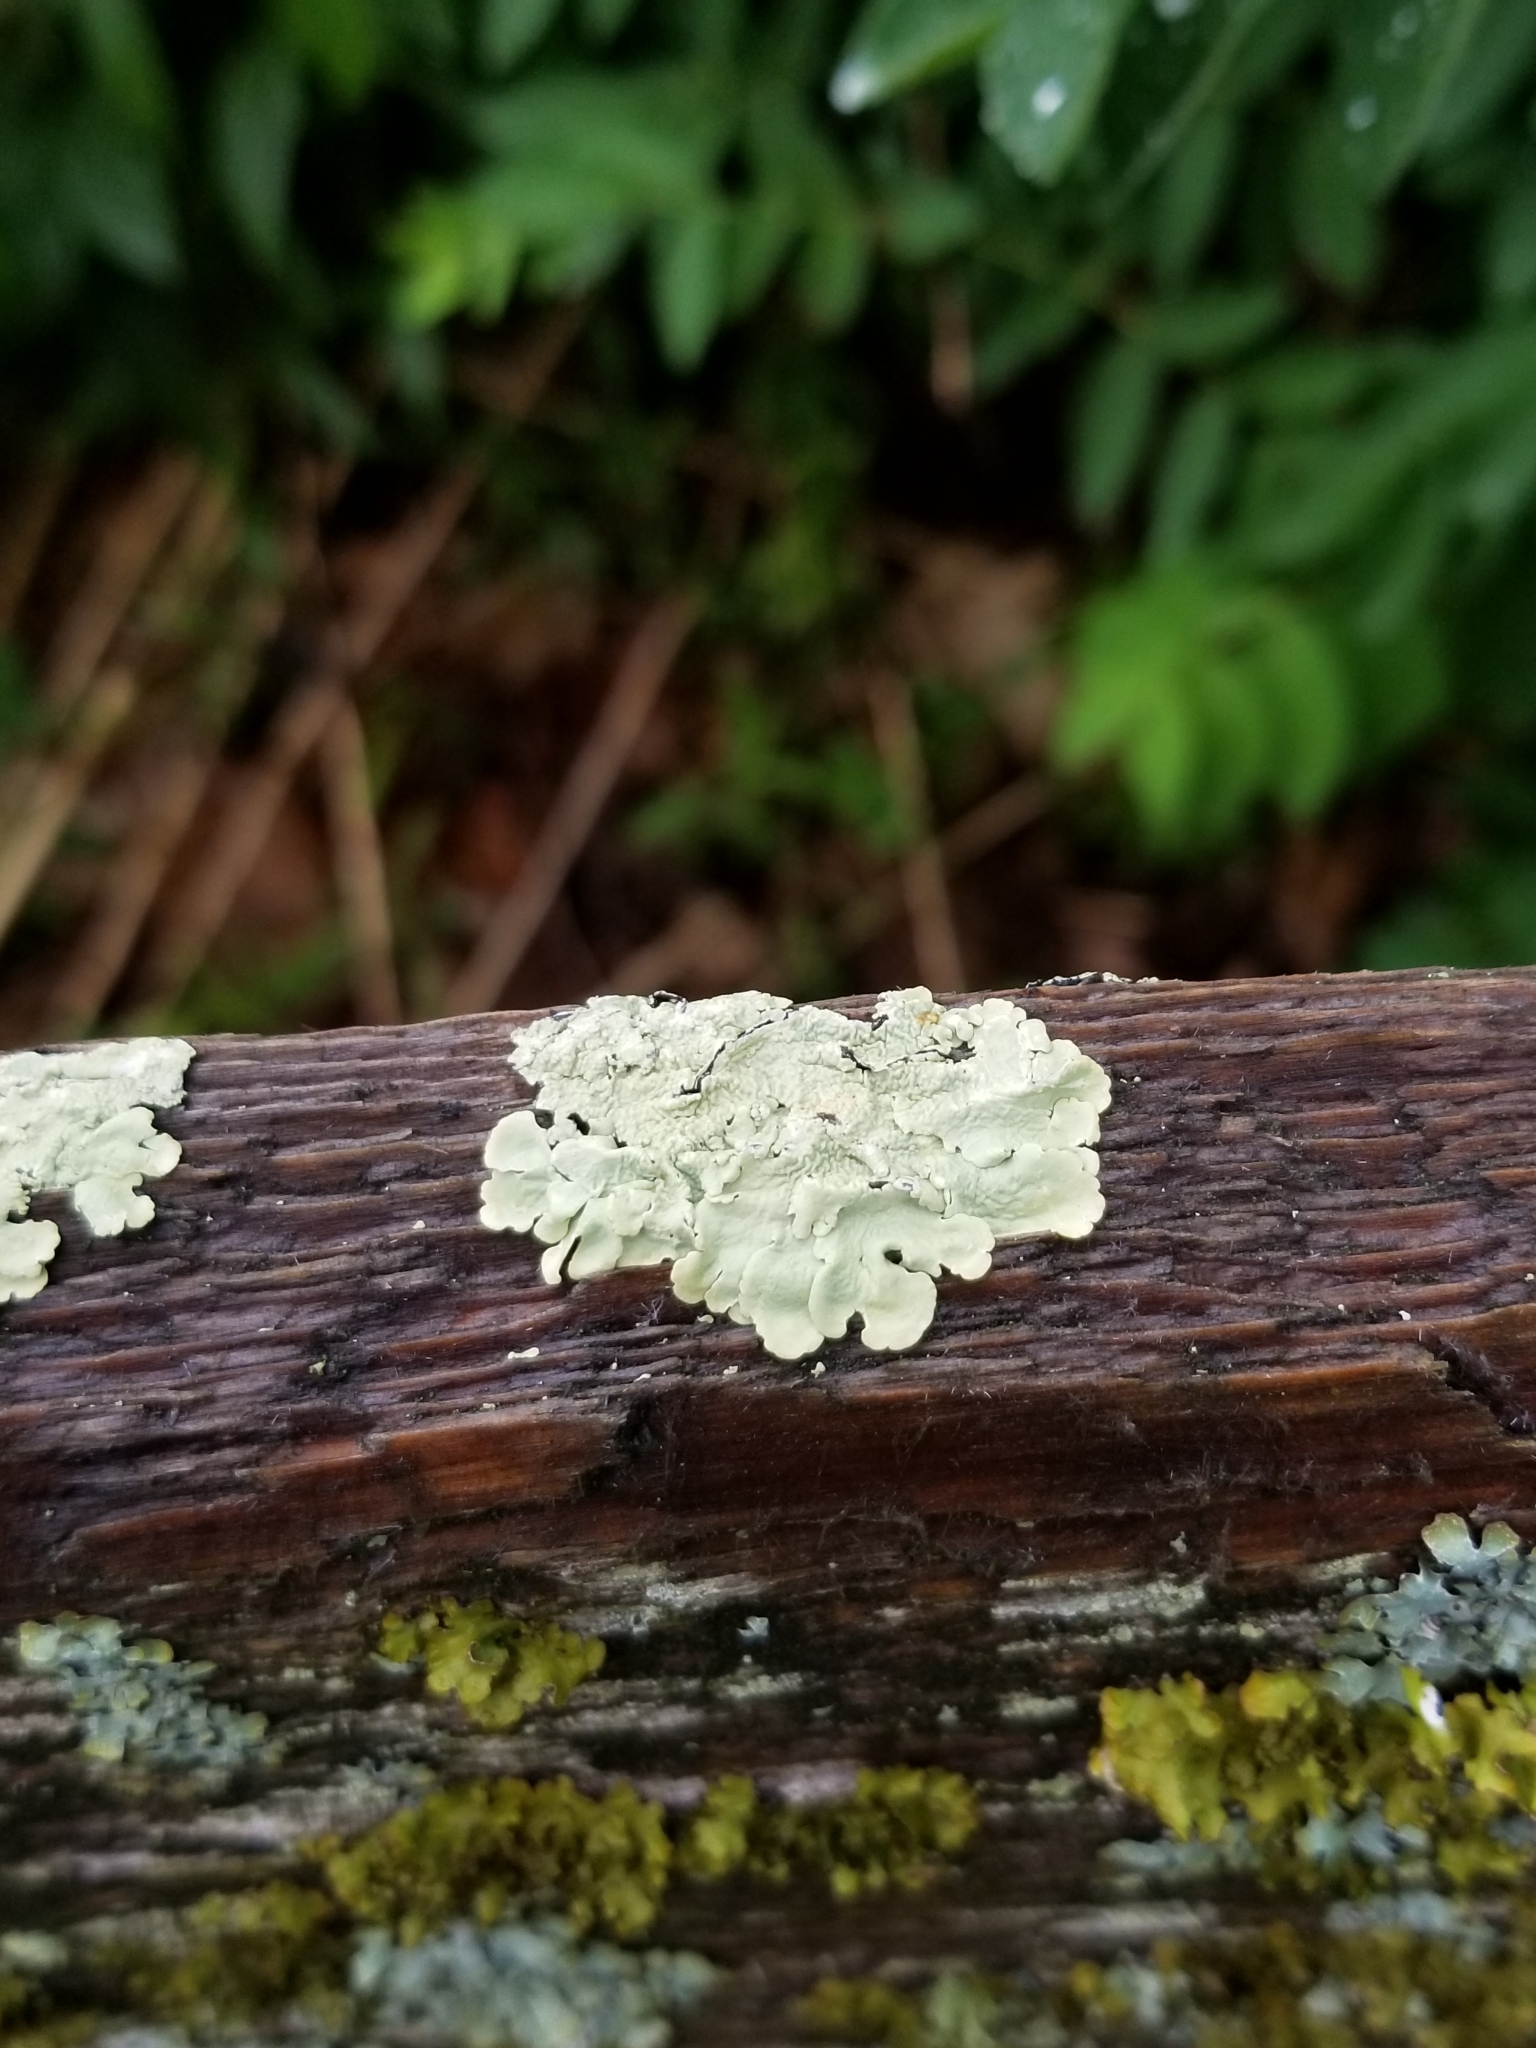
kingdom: Fungi
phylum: Ascomycota
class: Lecanoromycetes
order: Lecanorales
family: Parmeliaceae
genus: Flavoparmelia
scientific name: Flavoparmelia caperata
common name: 40-mile per hour lichen
